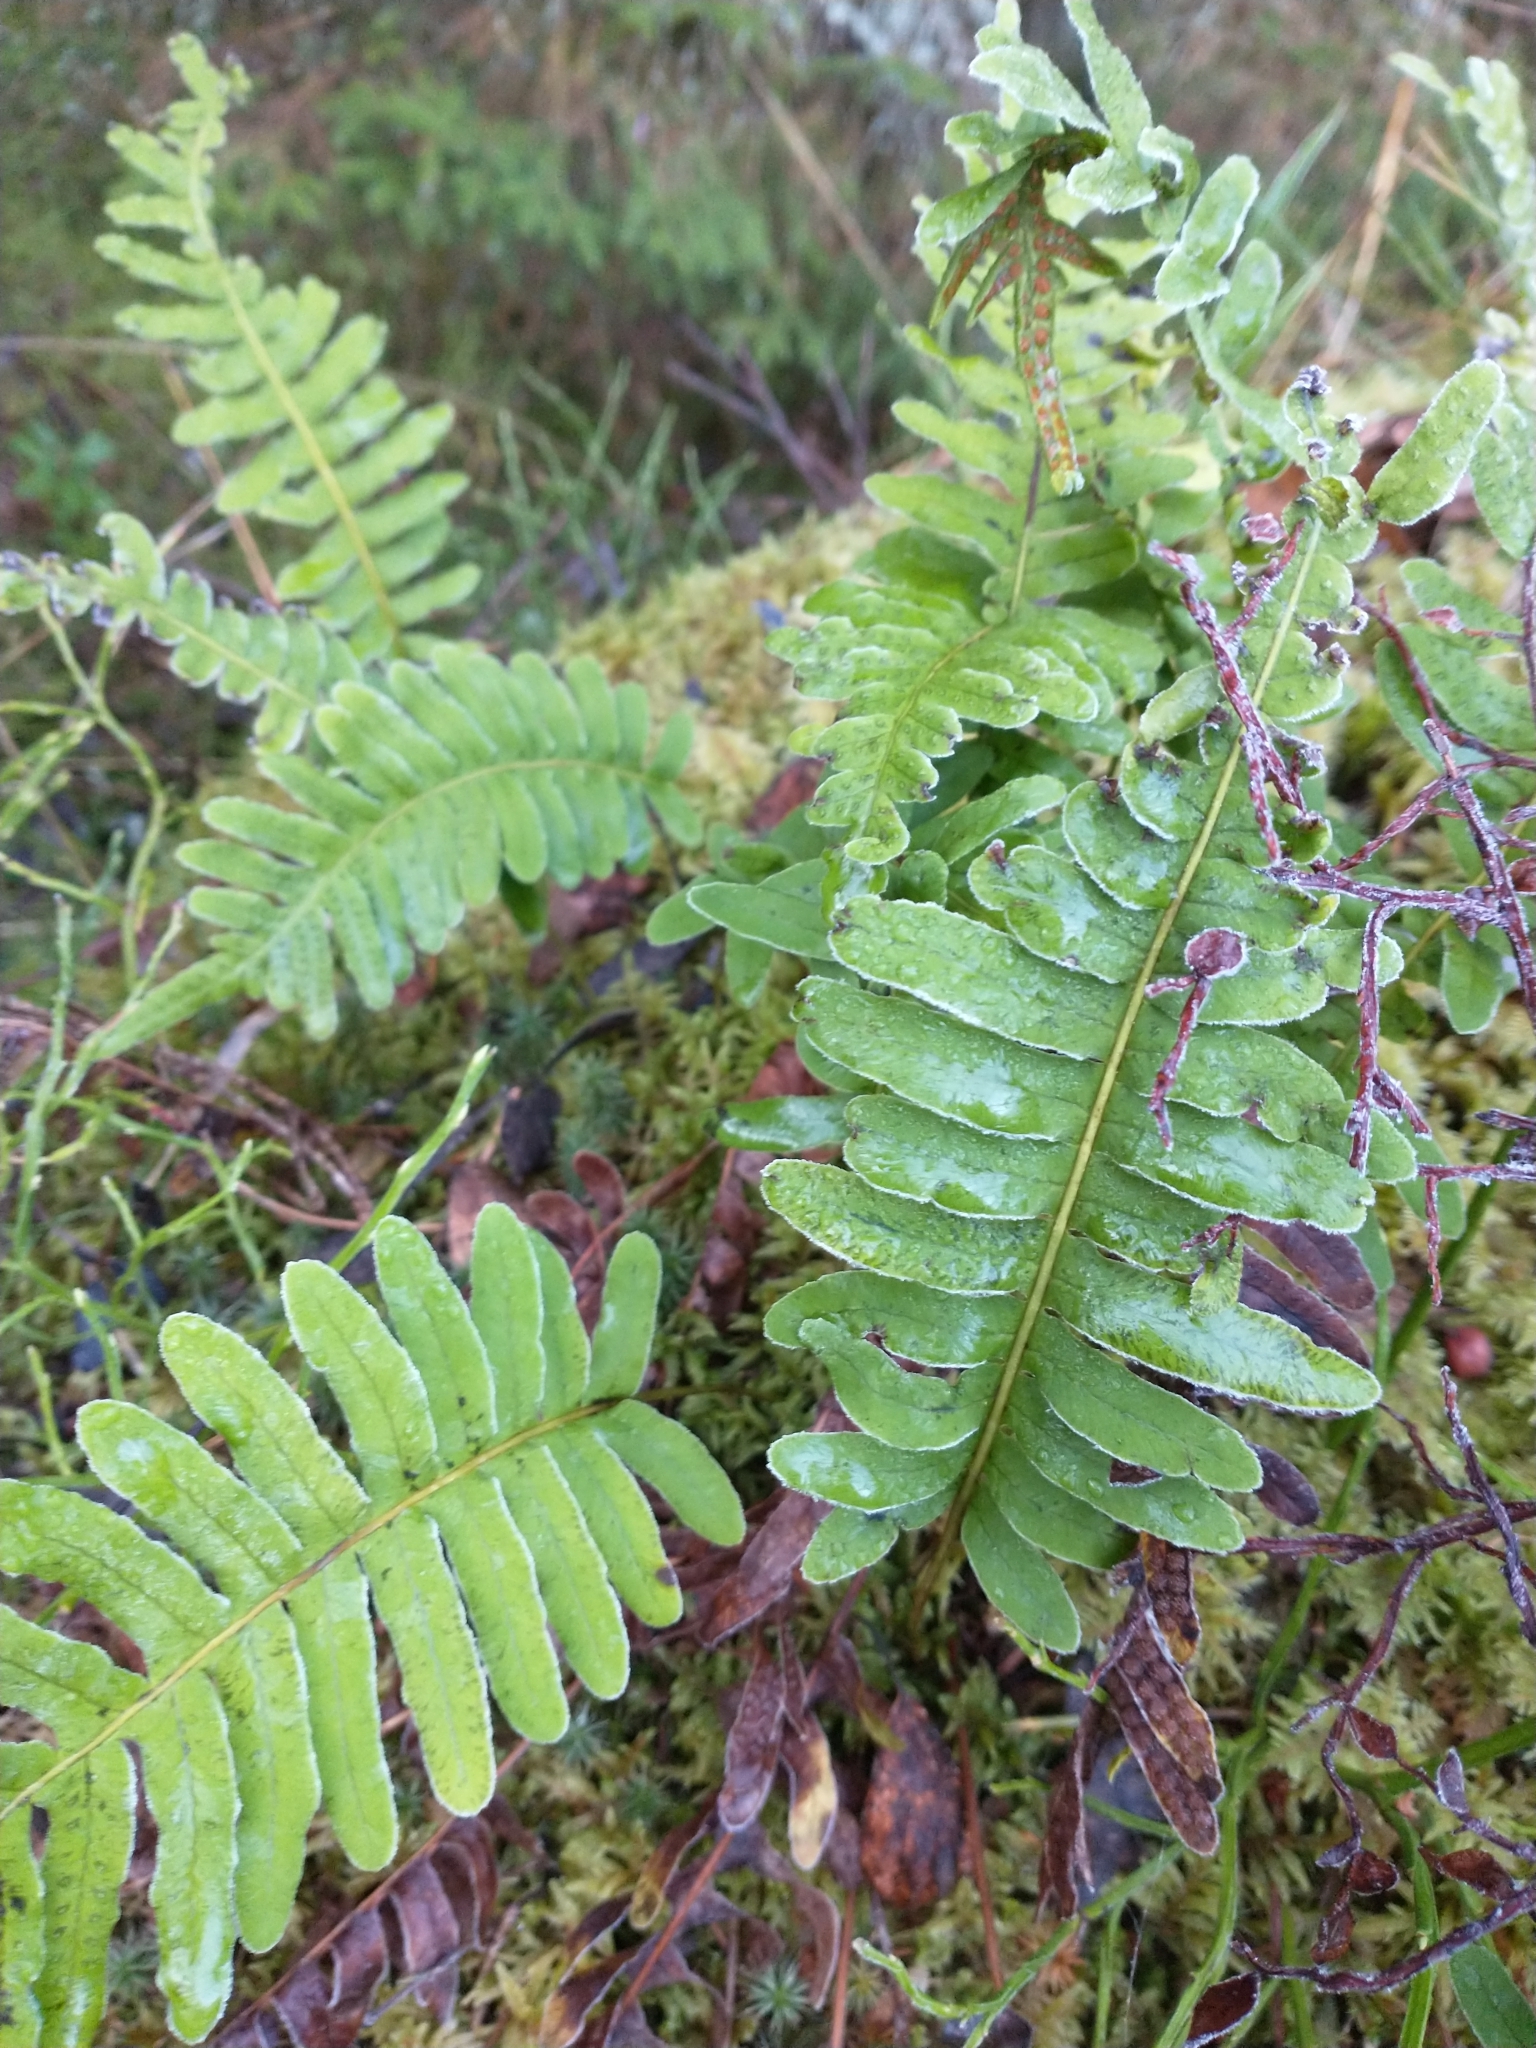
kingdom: Plantae
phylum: Tracheophyta
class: Polypodiopsida
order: Polypodiales
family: Polypodiaceae
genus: Polypodium
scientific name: Polypodium vulgare
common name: Common polypody
